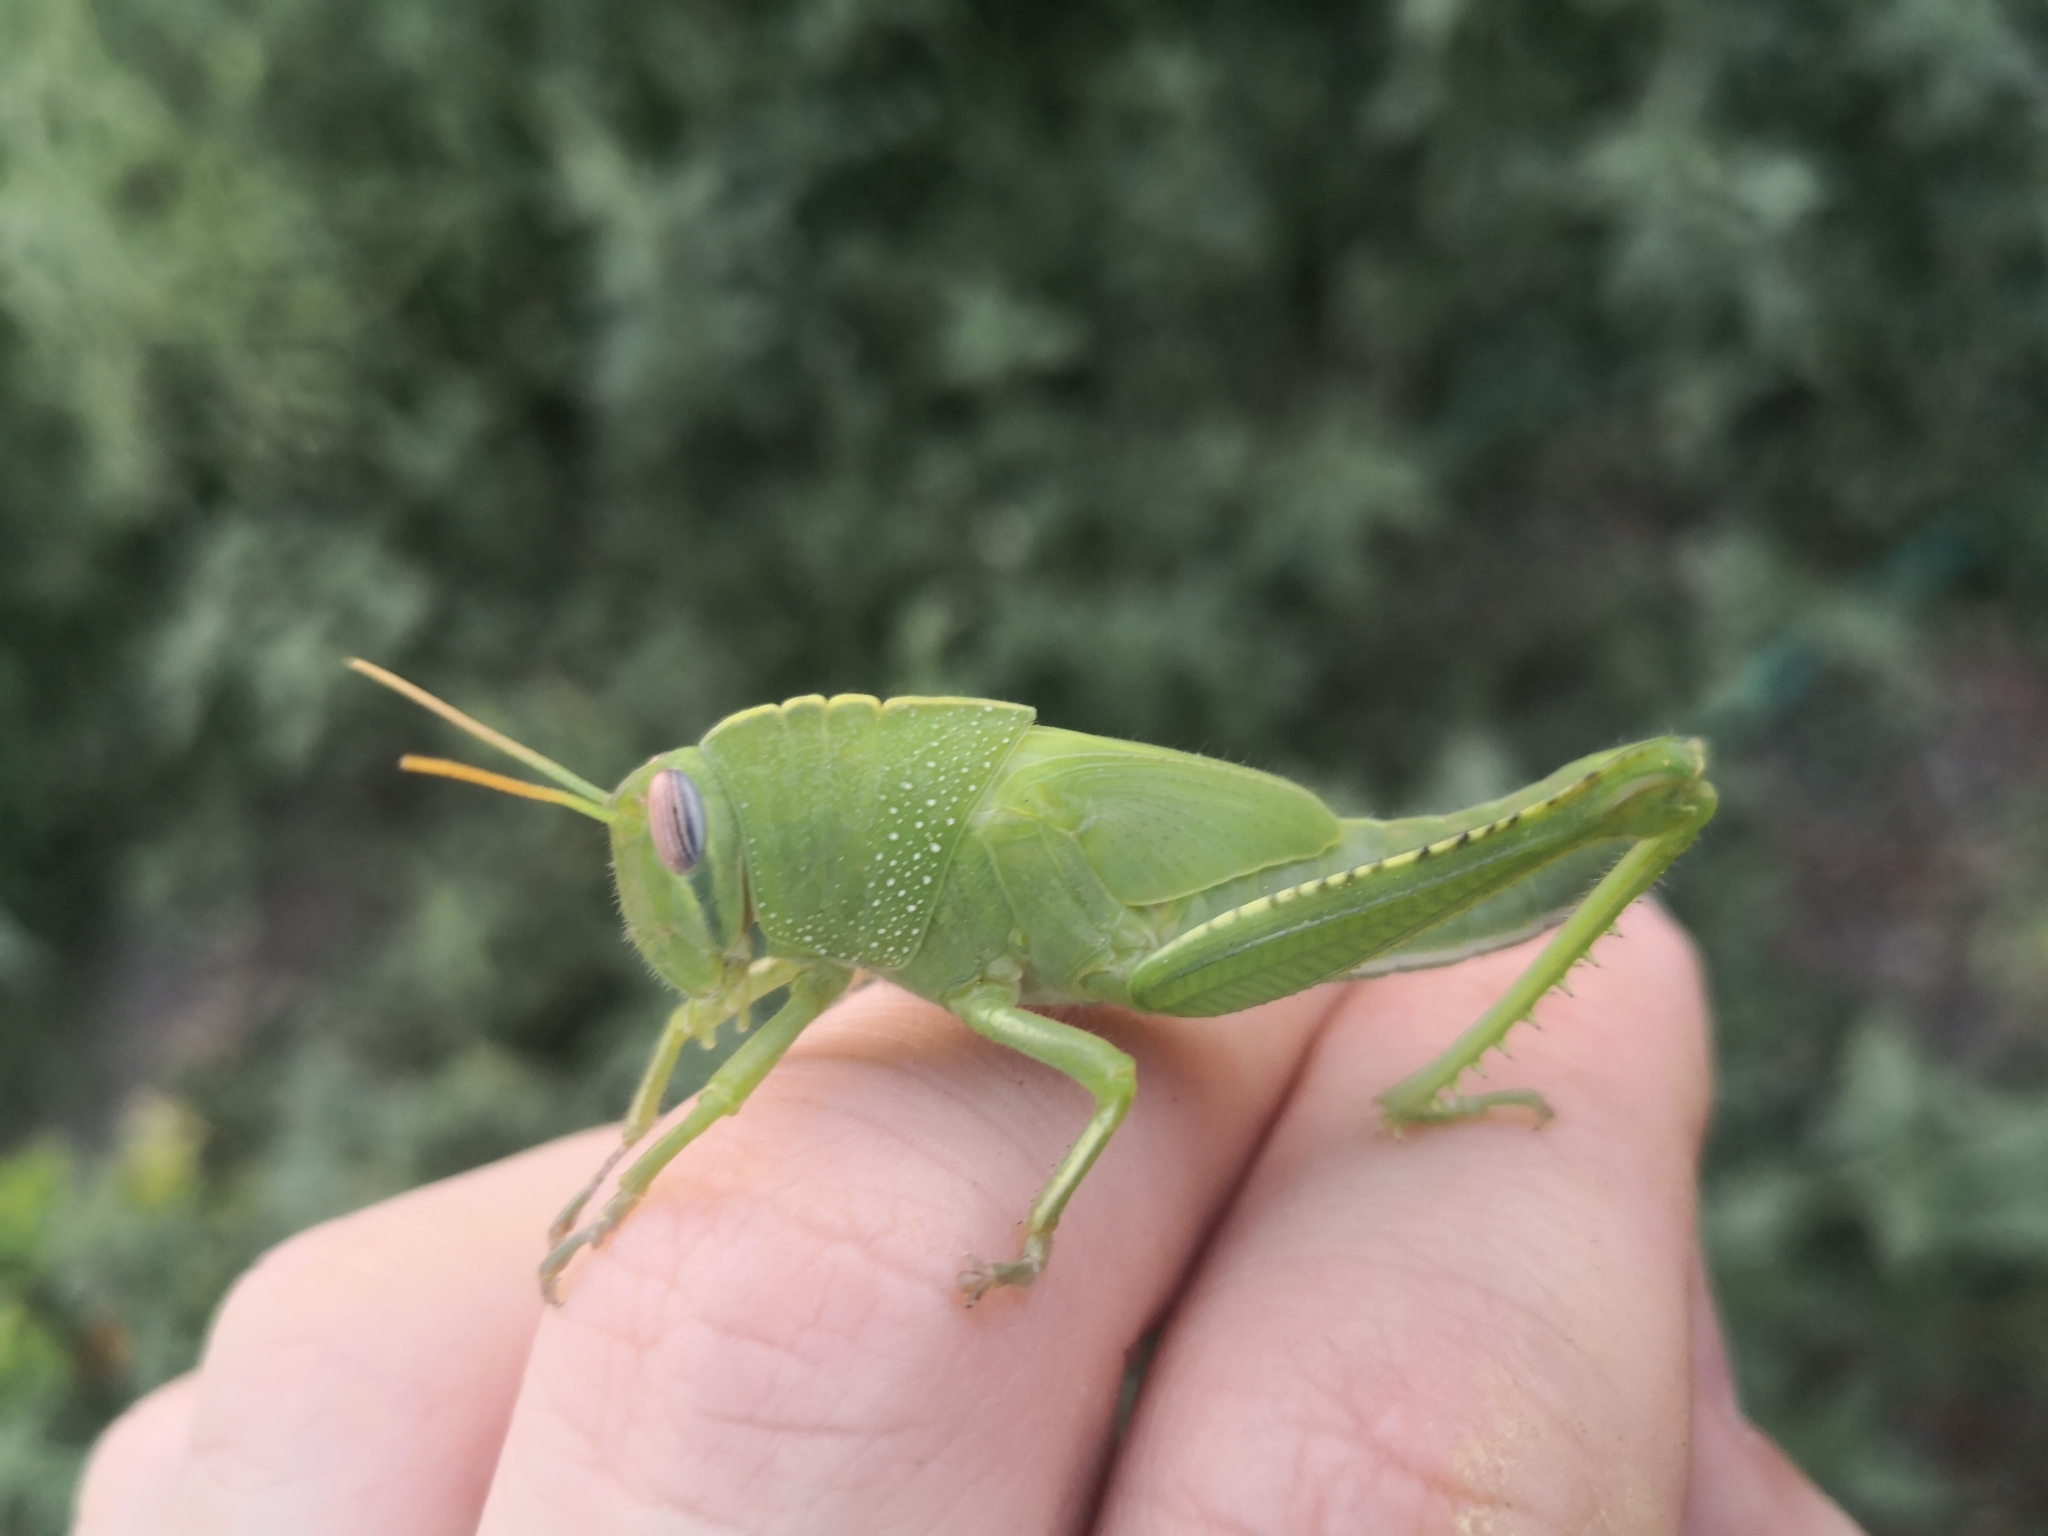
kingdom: Animalia
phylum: Arthropoda
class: Insecta
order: Orthoptera
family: Acrididae
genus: Anacridium
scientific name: Anacridium aegyptium
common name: Egyptian grasshopper
